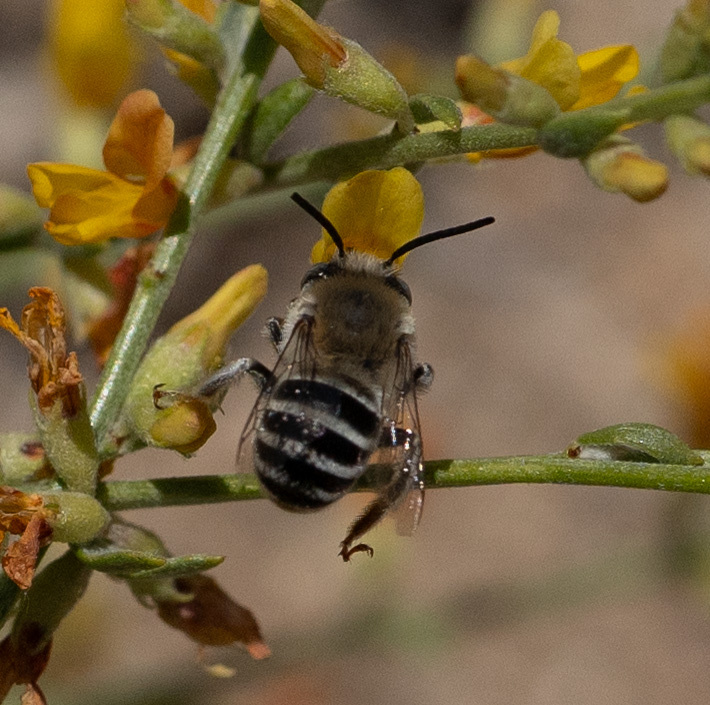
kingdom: Animalia
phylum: Arthropoda
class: Insecta
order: Hymenoptera
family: Apidae
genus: Anthophora
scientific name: Anthophora urbana
